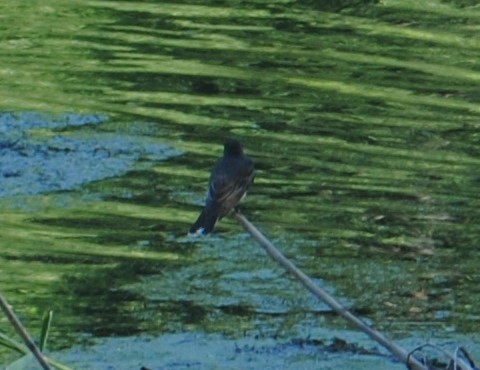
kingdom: Animalia
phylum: Chordata
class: Aves
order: Passeriformes
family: Tyrannidae
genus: Tyrannus
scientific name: Tyrannus tyrannus
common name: Eastern kingbird
